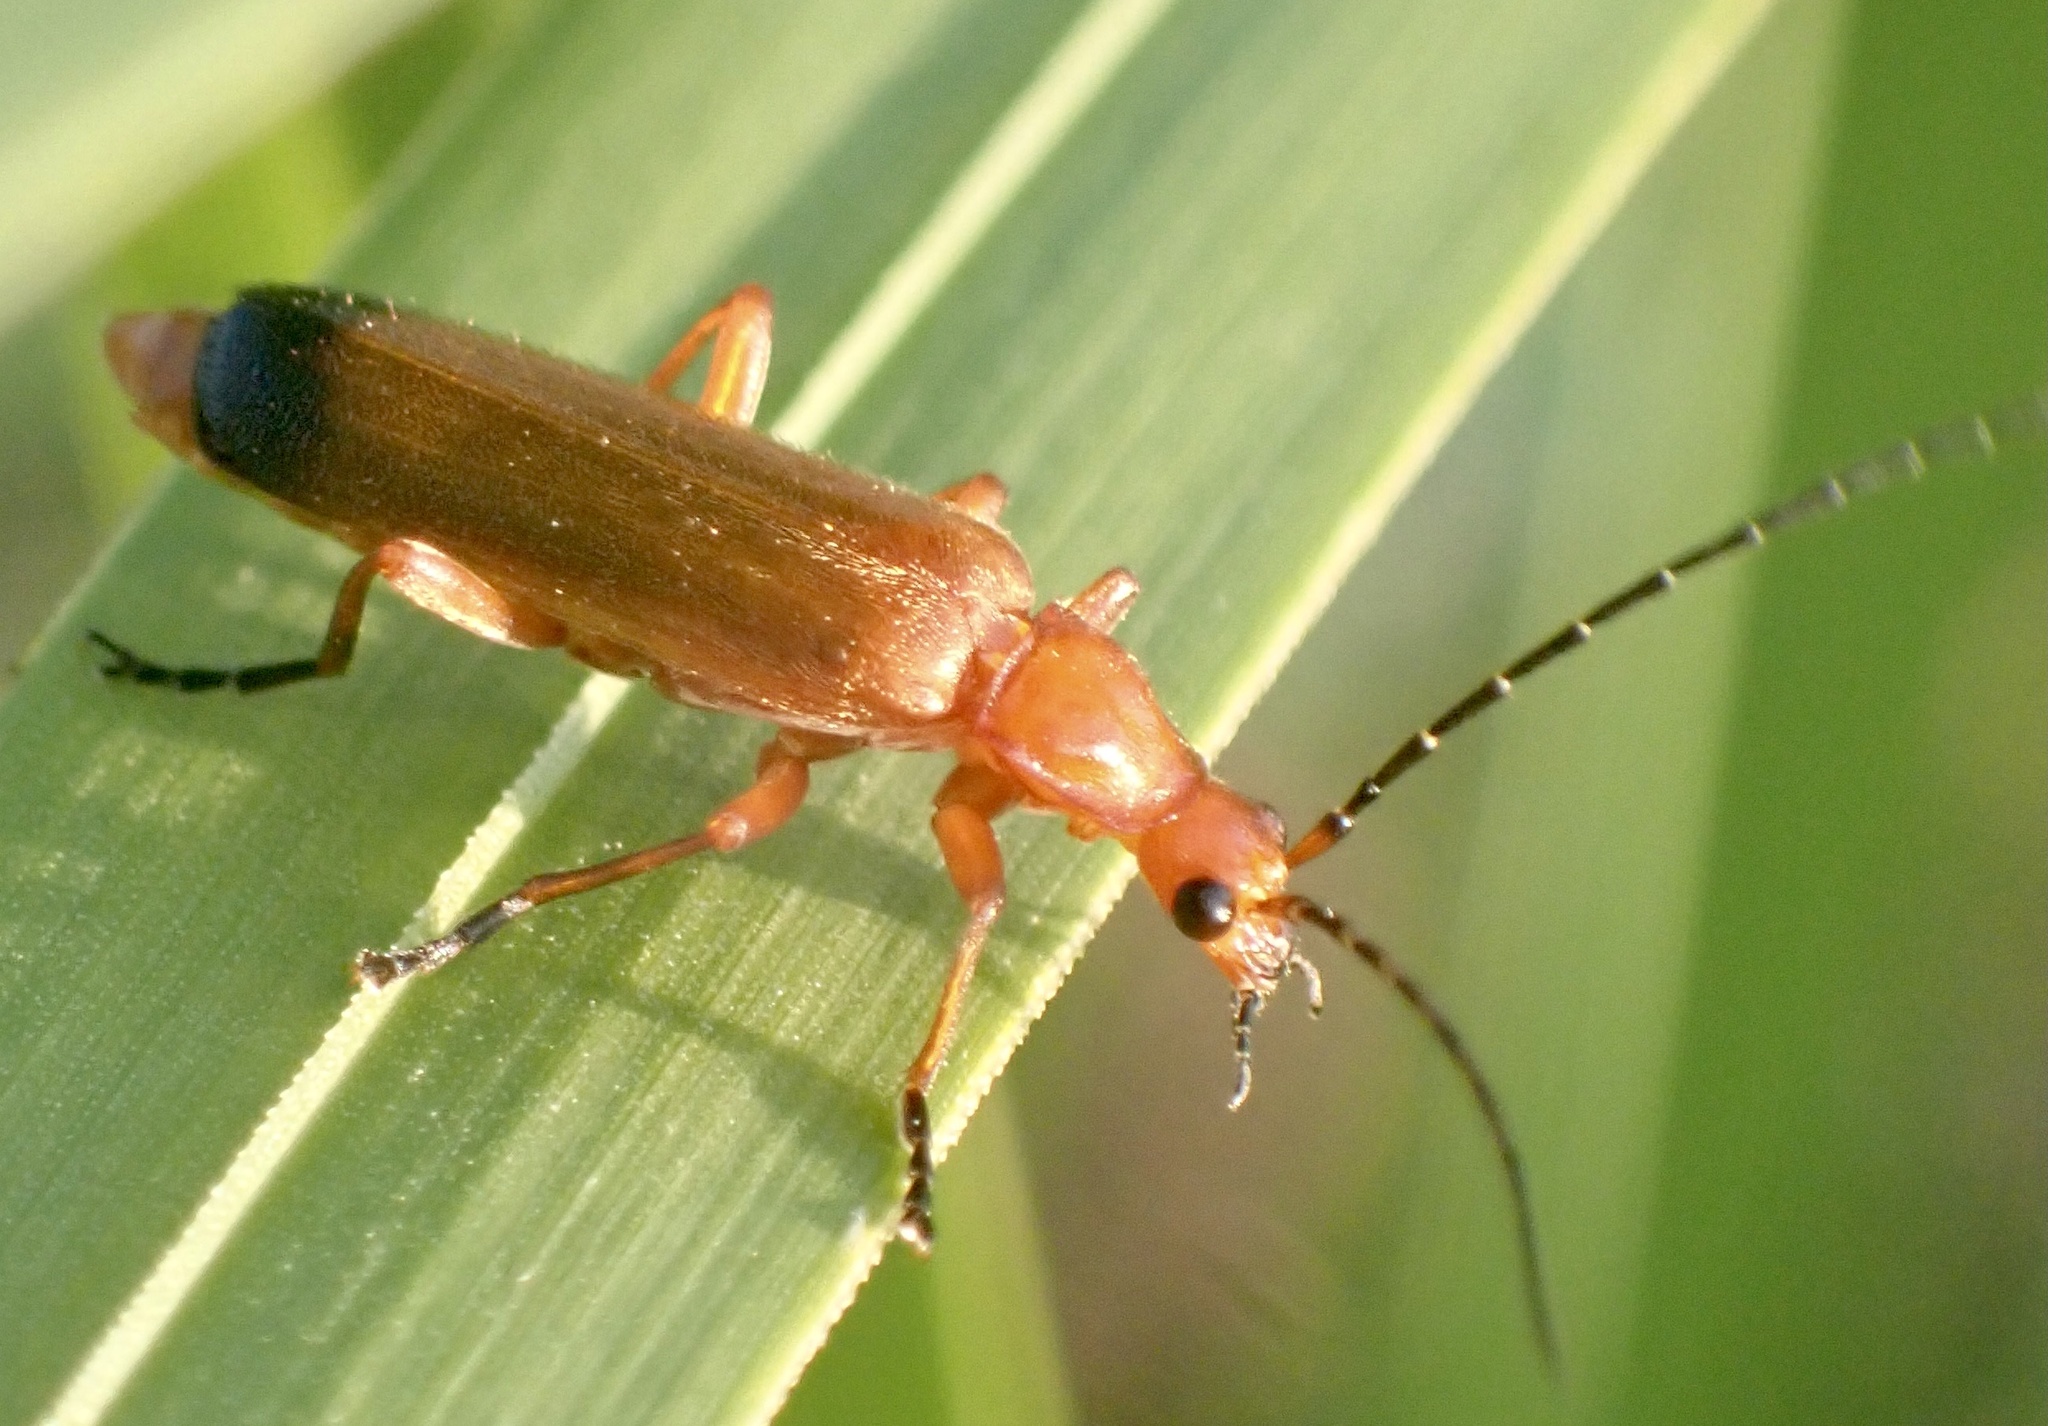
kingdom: Animalia
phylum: Arthropoda
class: Insecta
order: Coleoptera
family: Cantharidae
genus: Rhagonycha
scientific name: Rhagonycha fulva
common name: Common red soldier beetle
